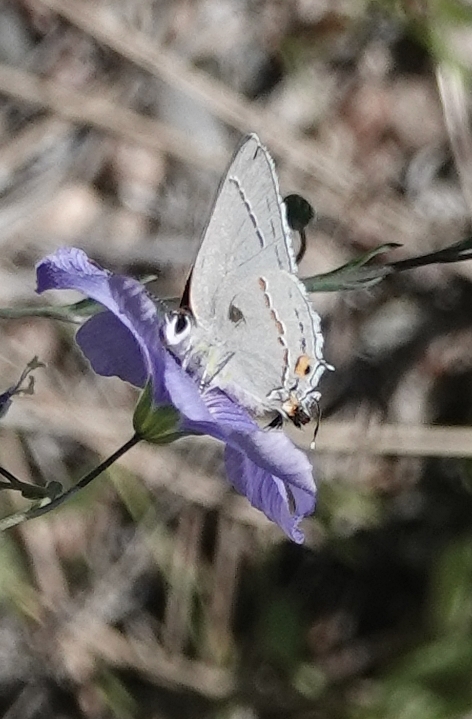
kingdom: Animalia
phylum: Arthropoda
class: Insecta
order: Lepidoptera
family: Lycaenidae
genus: Strymon
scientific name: Strymon melinus
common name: Gray hairstreak
